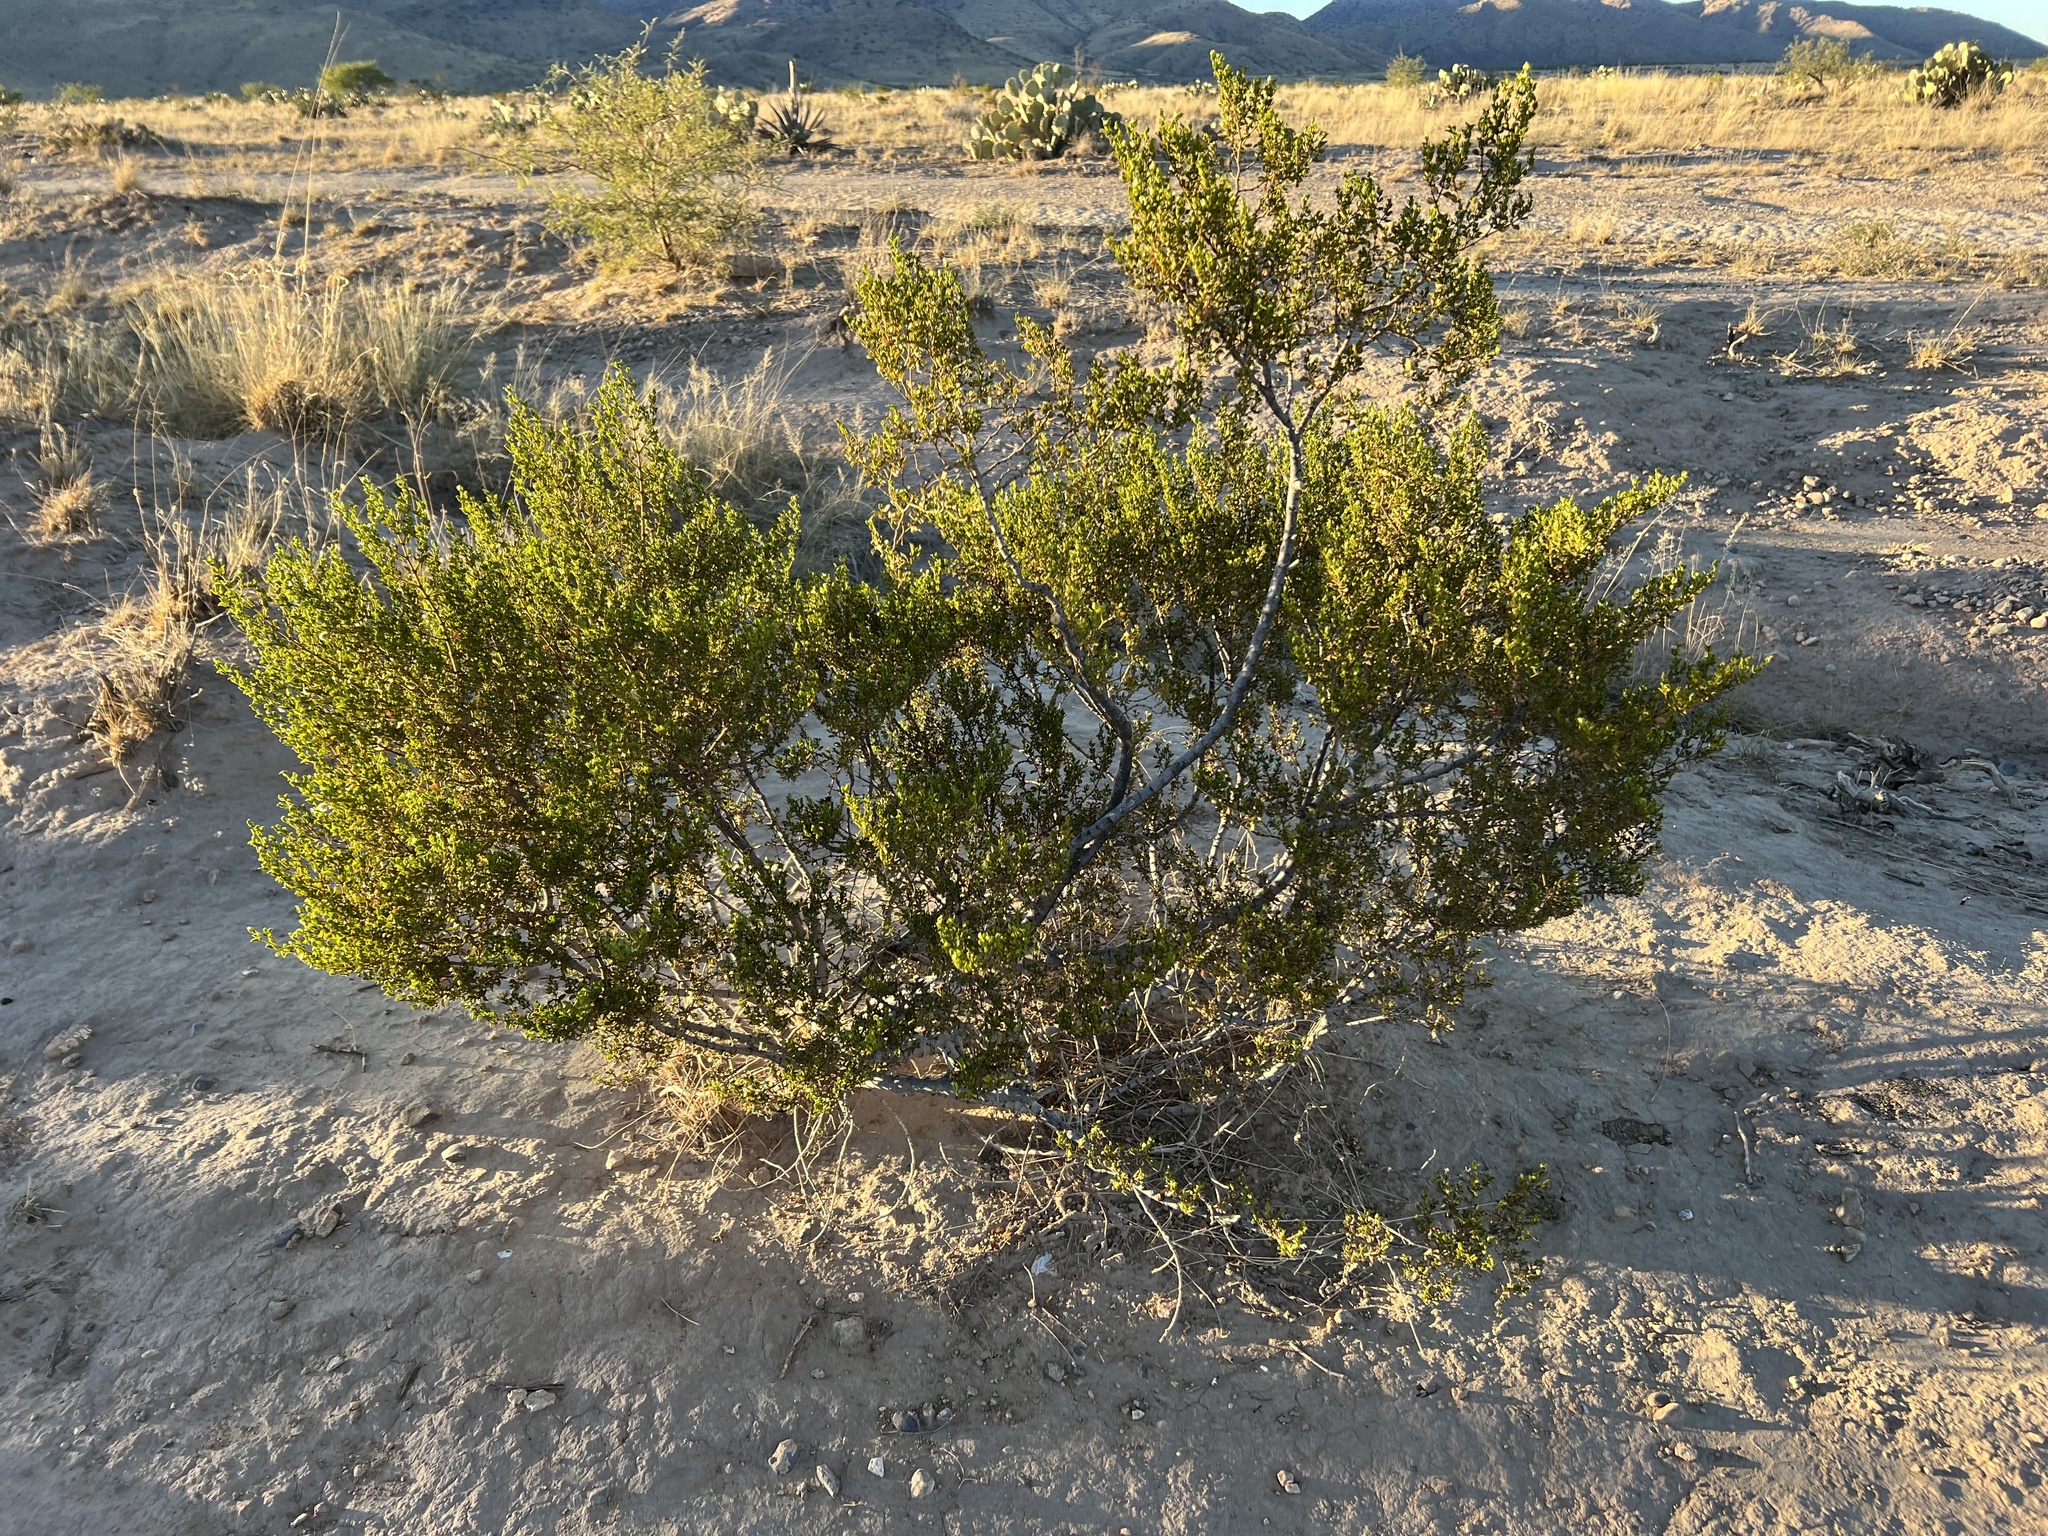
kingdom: Plantae
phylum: Tracheophyta
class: Magnoliopsida
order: Zygophyllales
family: Zygophyllaceae
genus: Larrea
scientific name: Larrea tridentata
